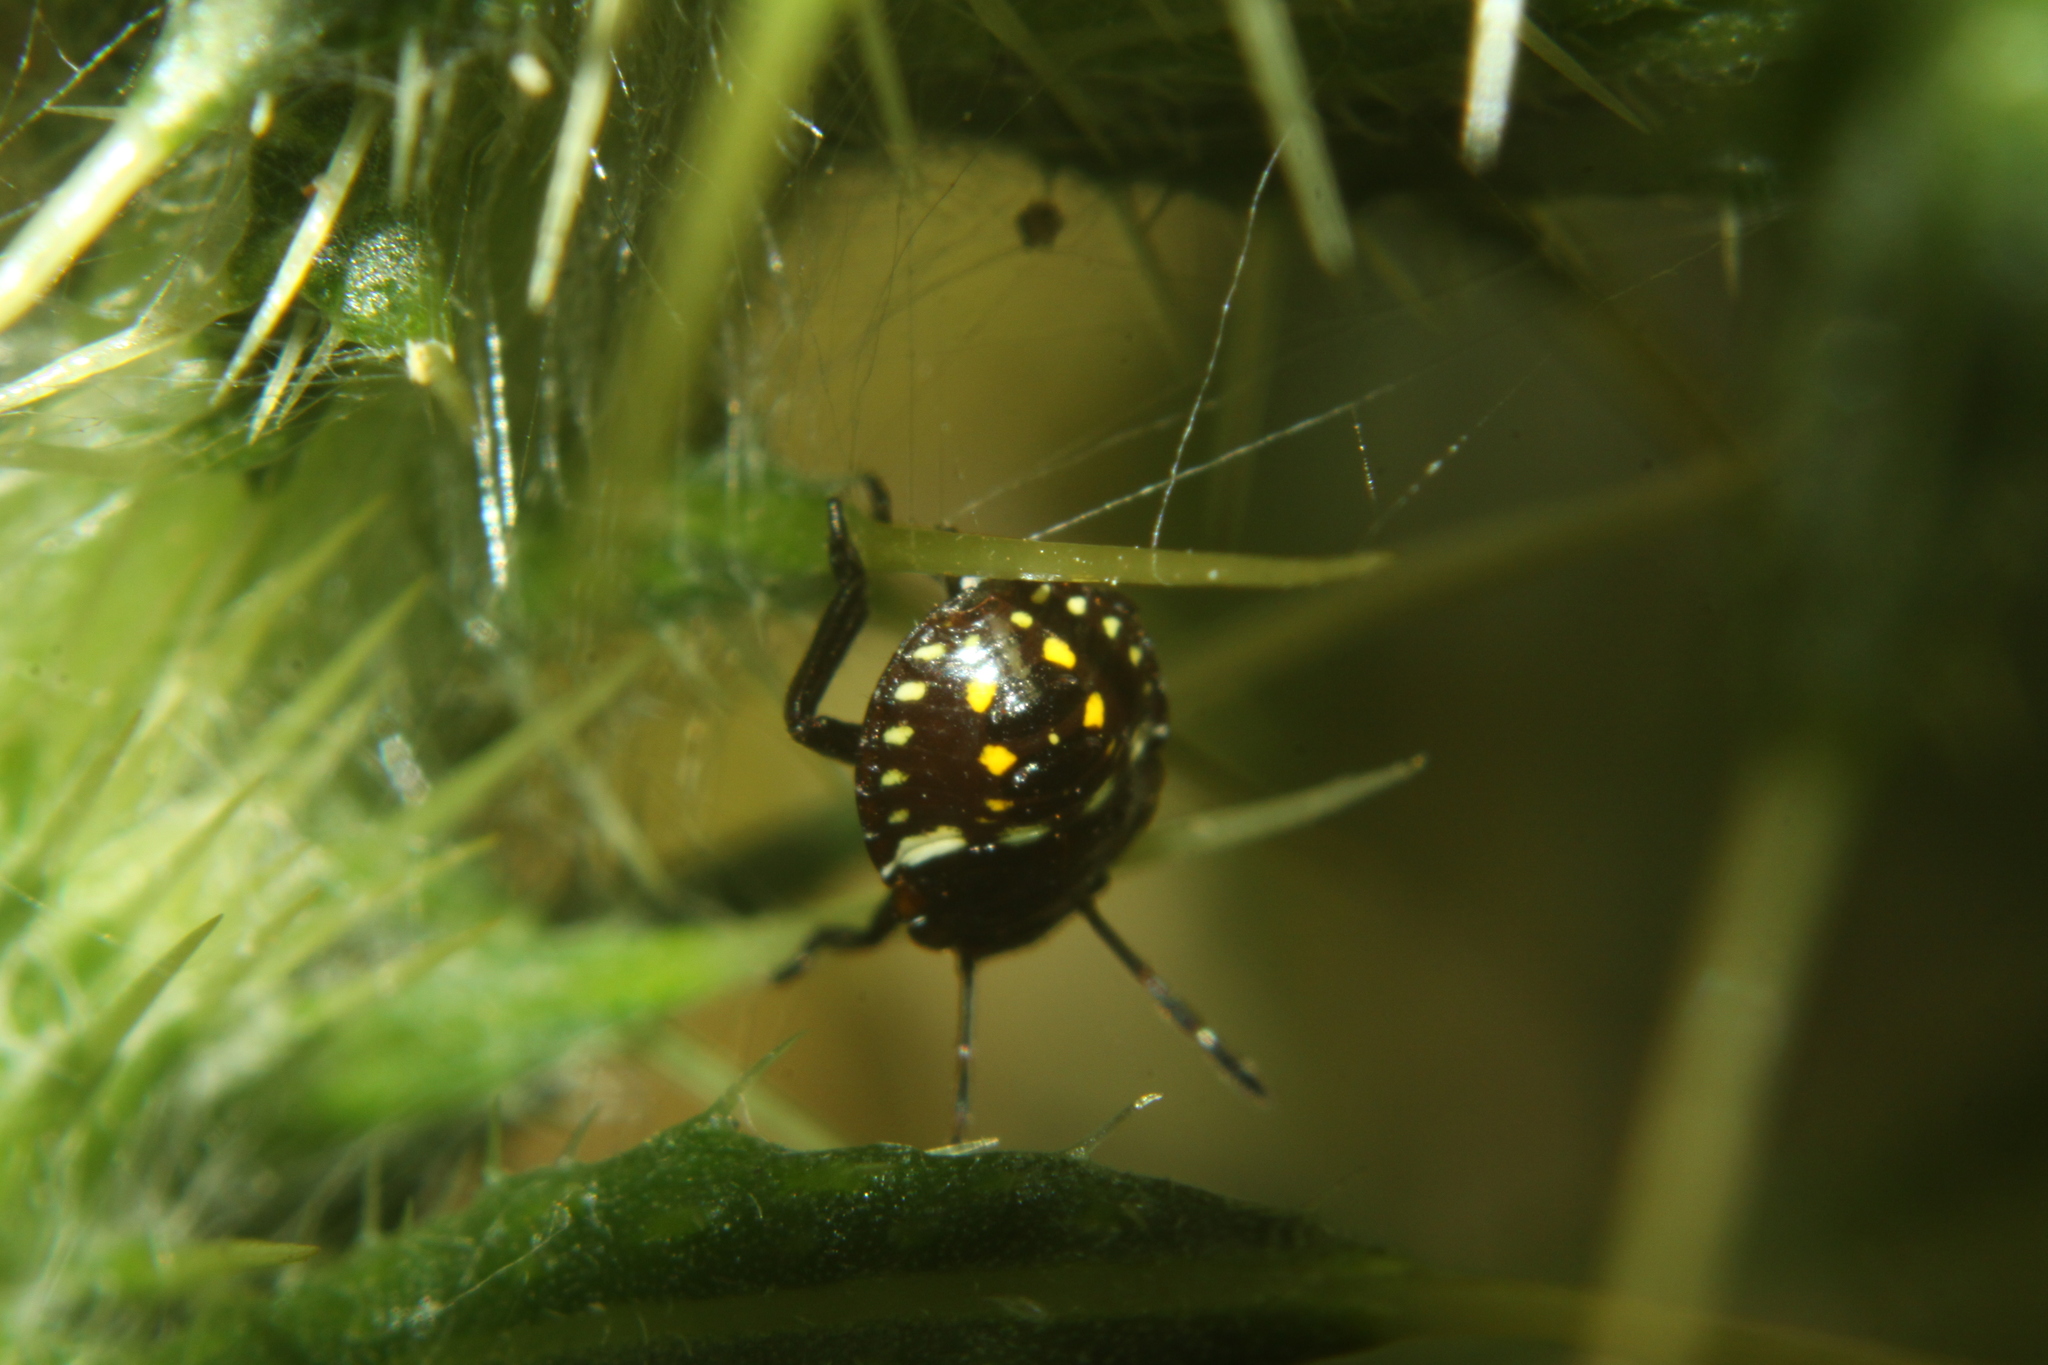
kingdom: Animalia
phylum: Arthropoda
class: Insecta
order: Hemiptera
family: Pentatomidae
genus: Nezara
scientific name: Nezara viridula
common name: Southern green stink bug
